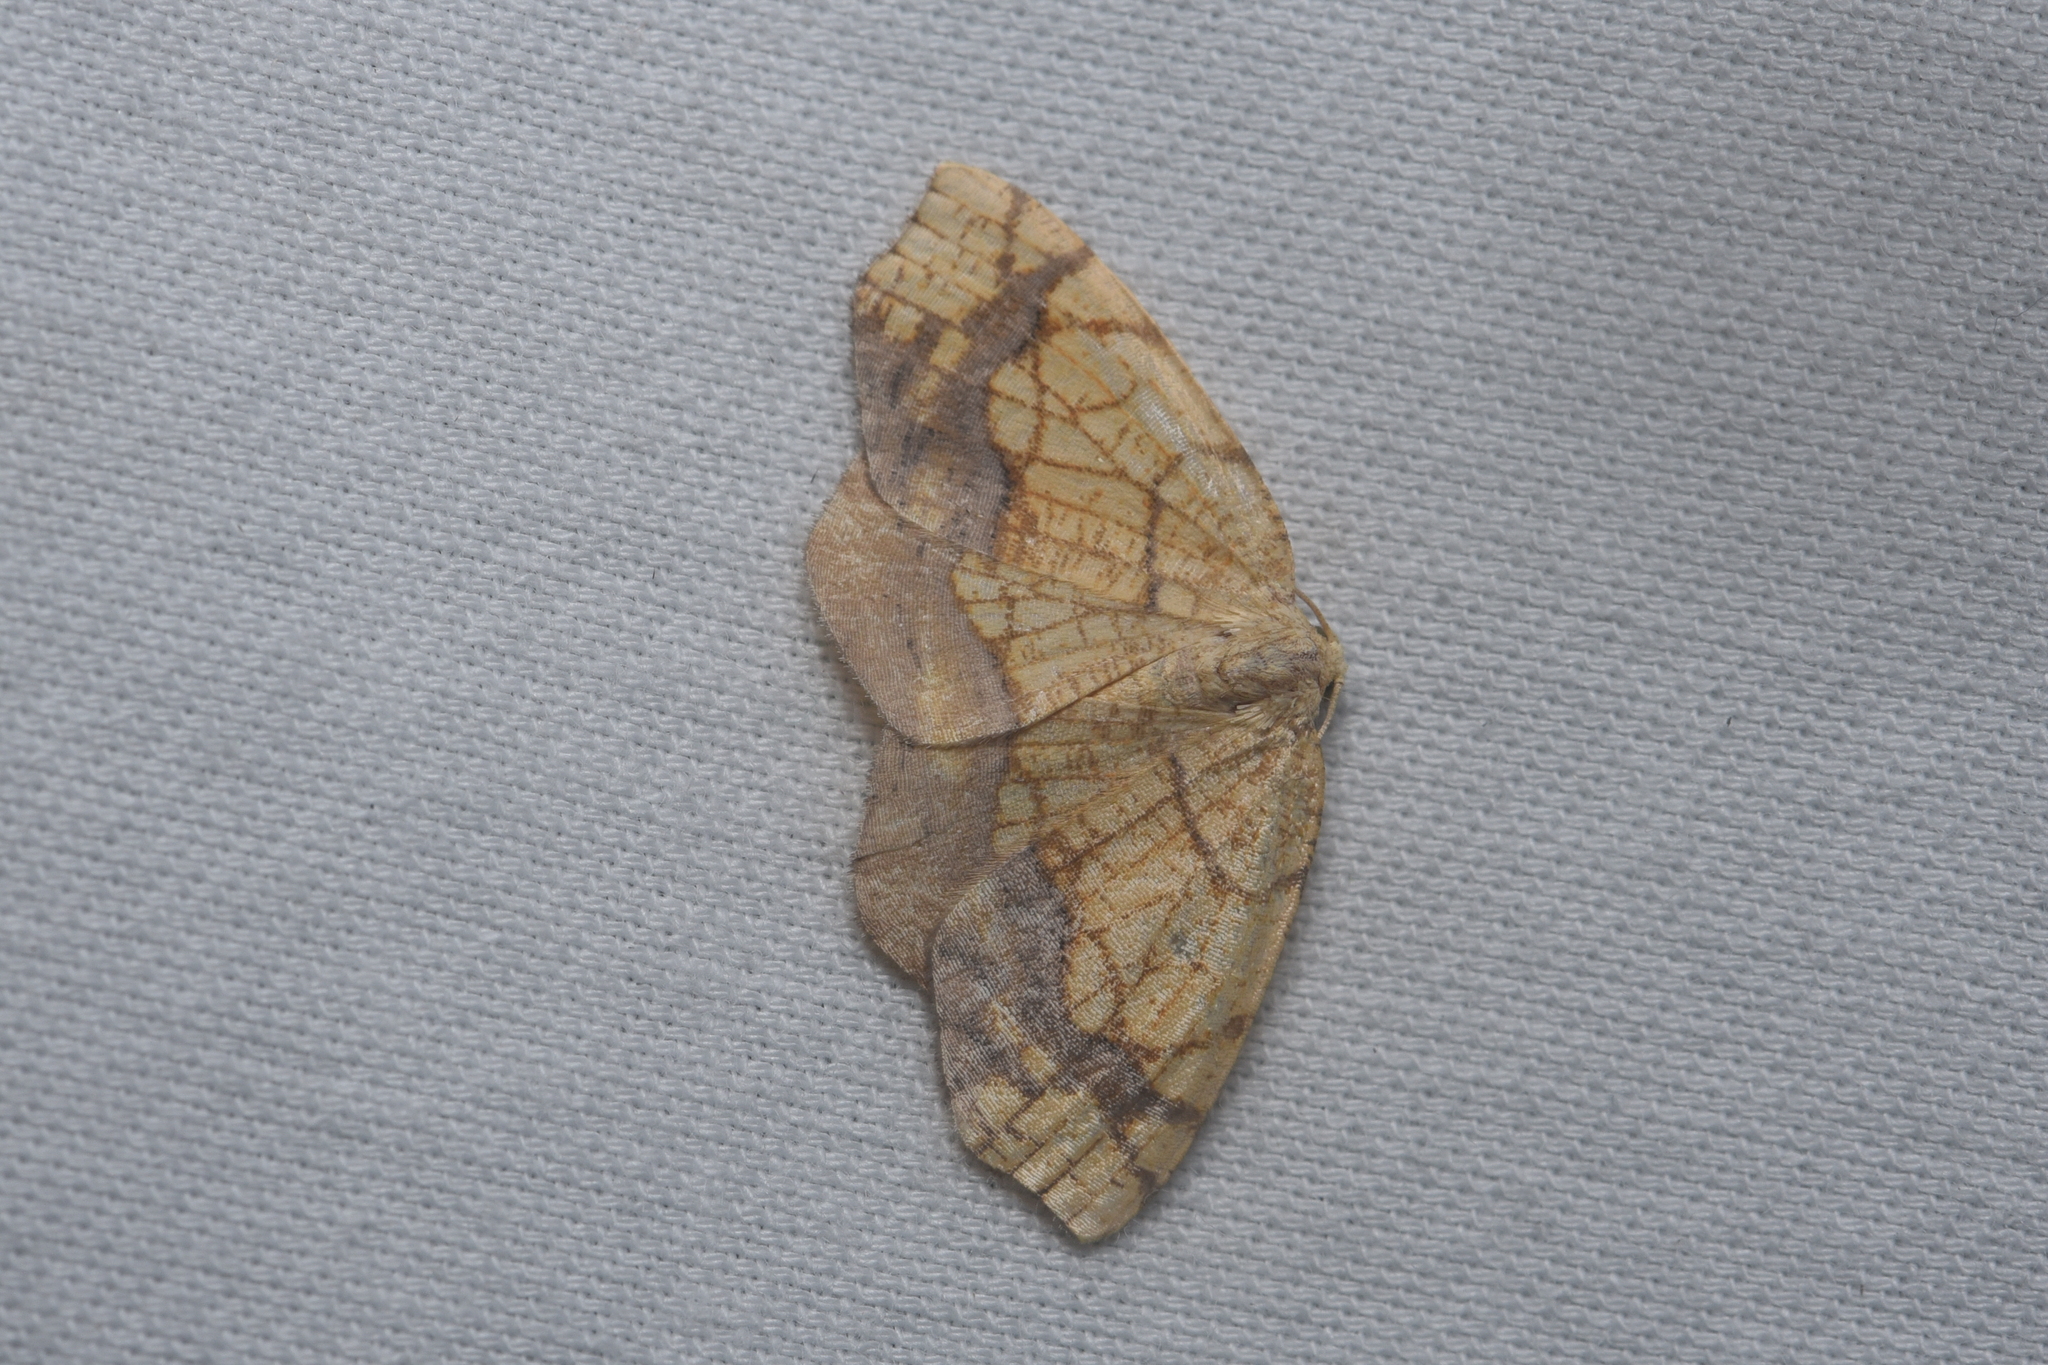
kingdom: Animalia
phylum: Arthropoda
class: Insecta
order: Lepidoptera
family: Geometridae
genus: Nematocampa
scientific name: Nematocampa resistaria
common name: Horned spanworm moth
